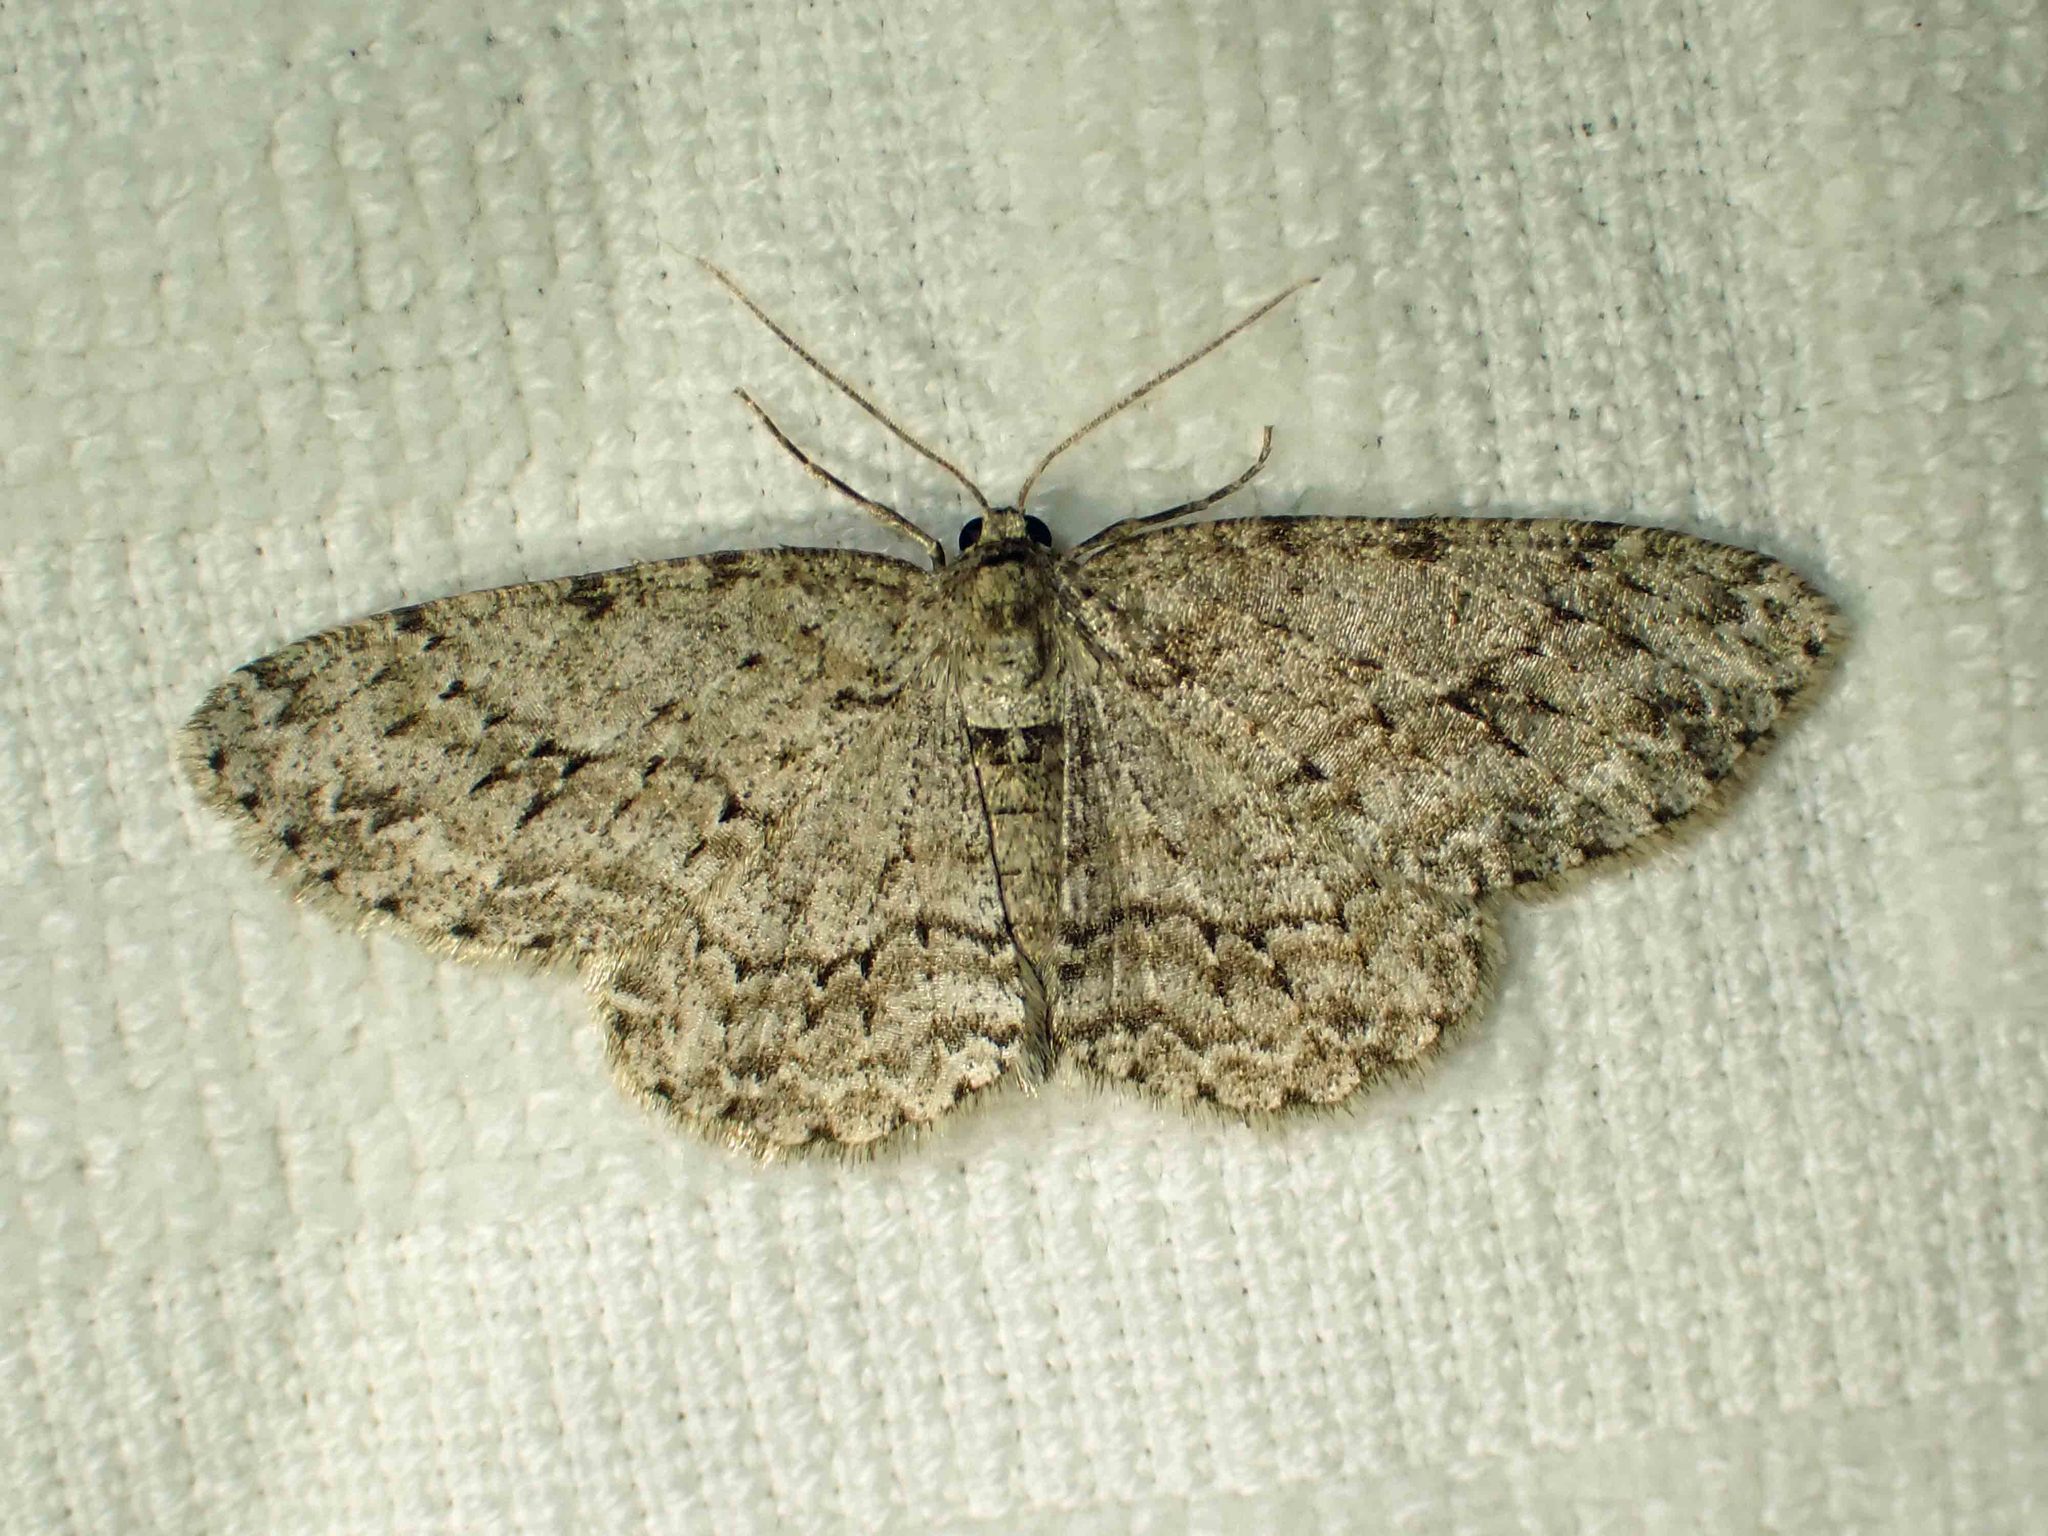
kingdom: Animalia
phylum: Arthropoda
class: Insecta
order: Lepidoptera
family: Geometridae
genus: Ectropis
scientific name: Ectropis crepuscularia
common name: Engrailed
